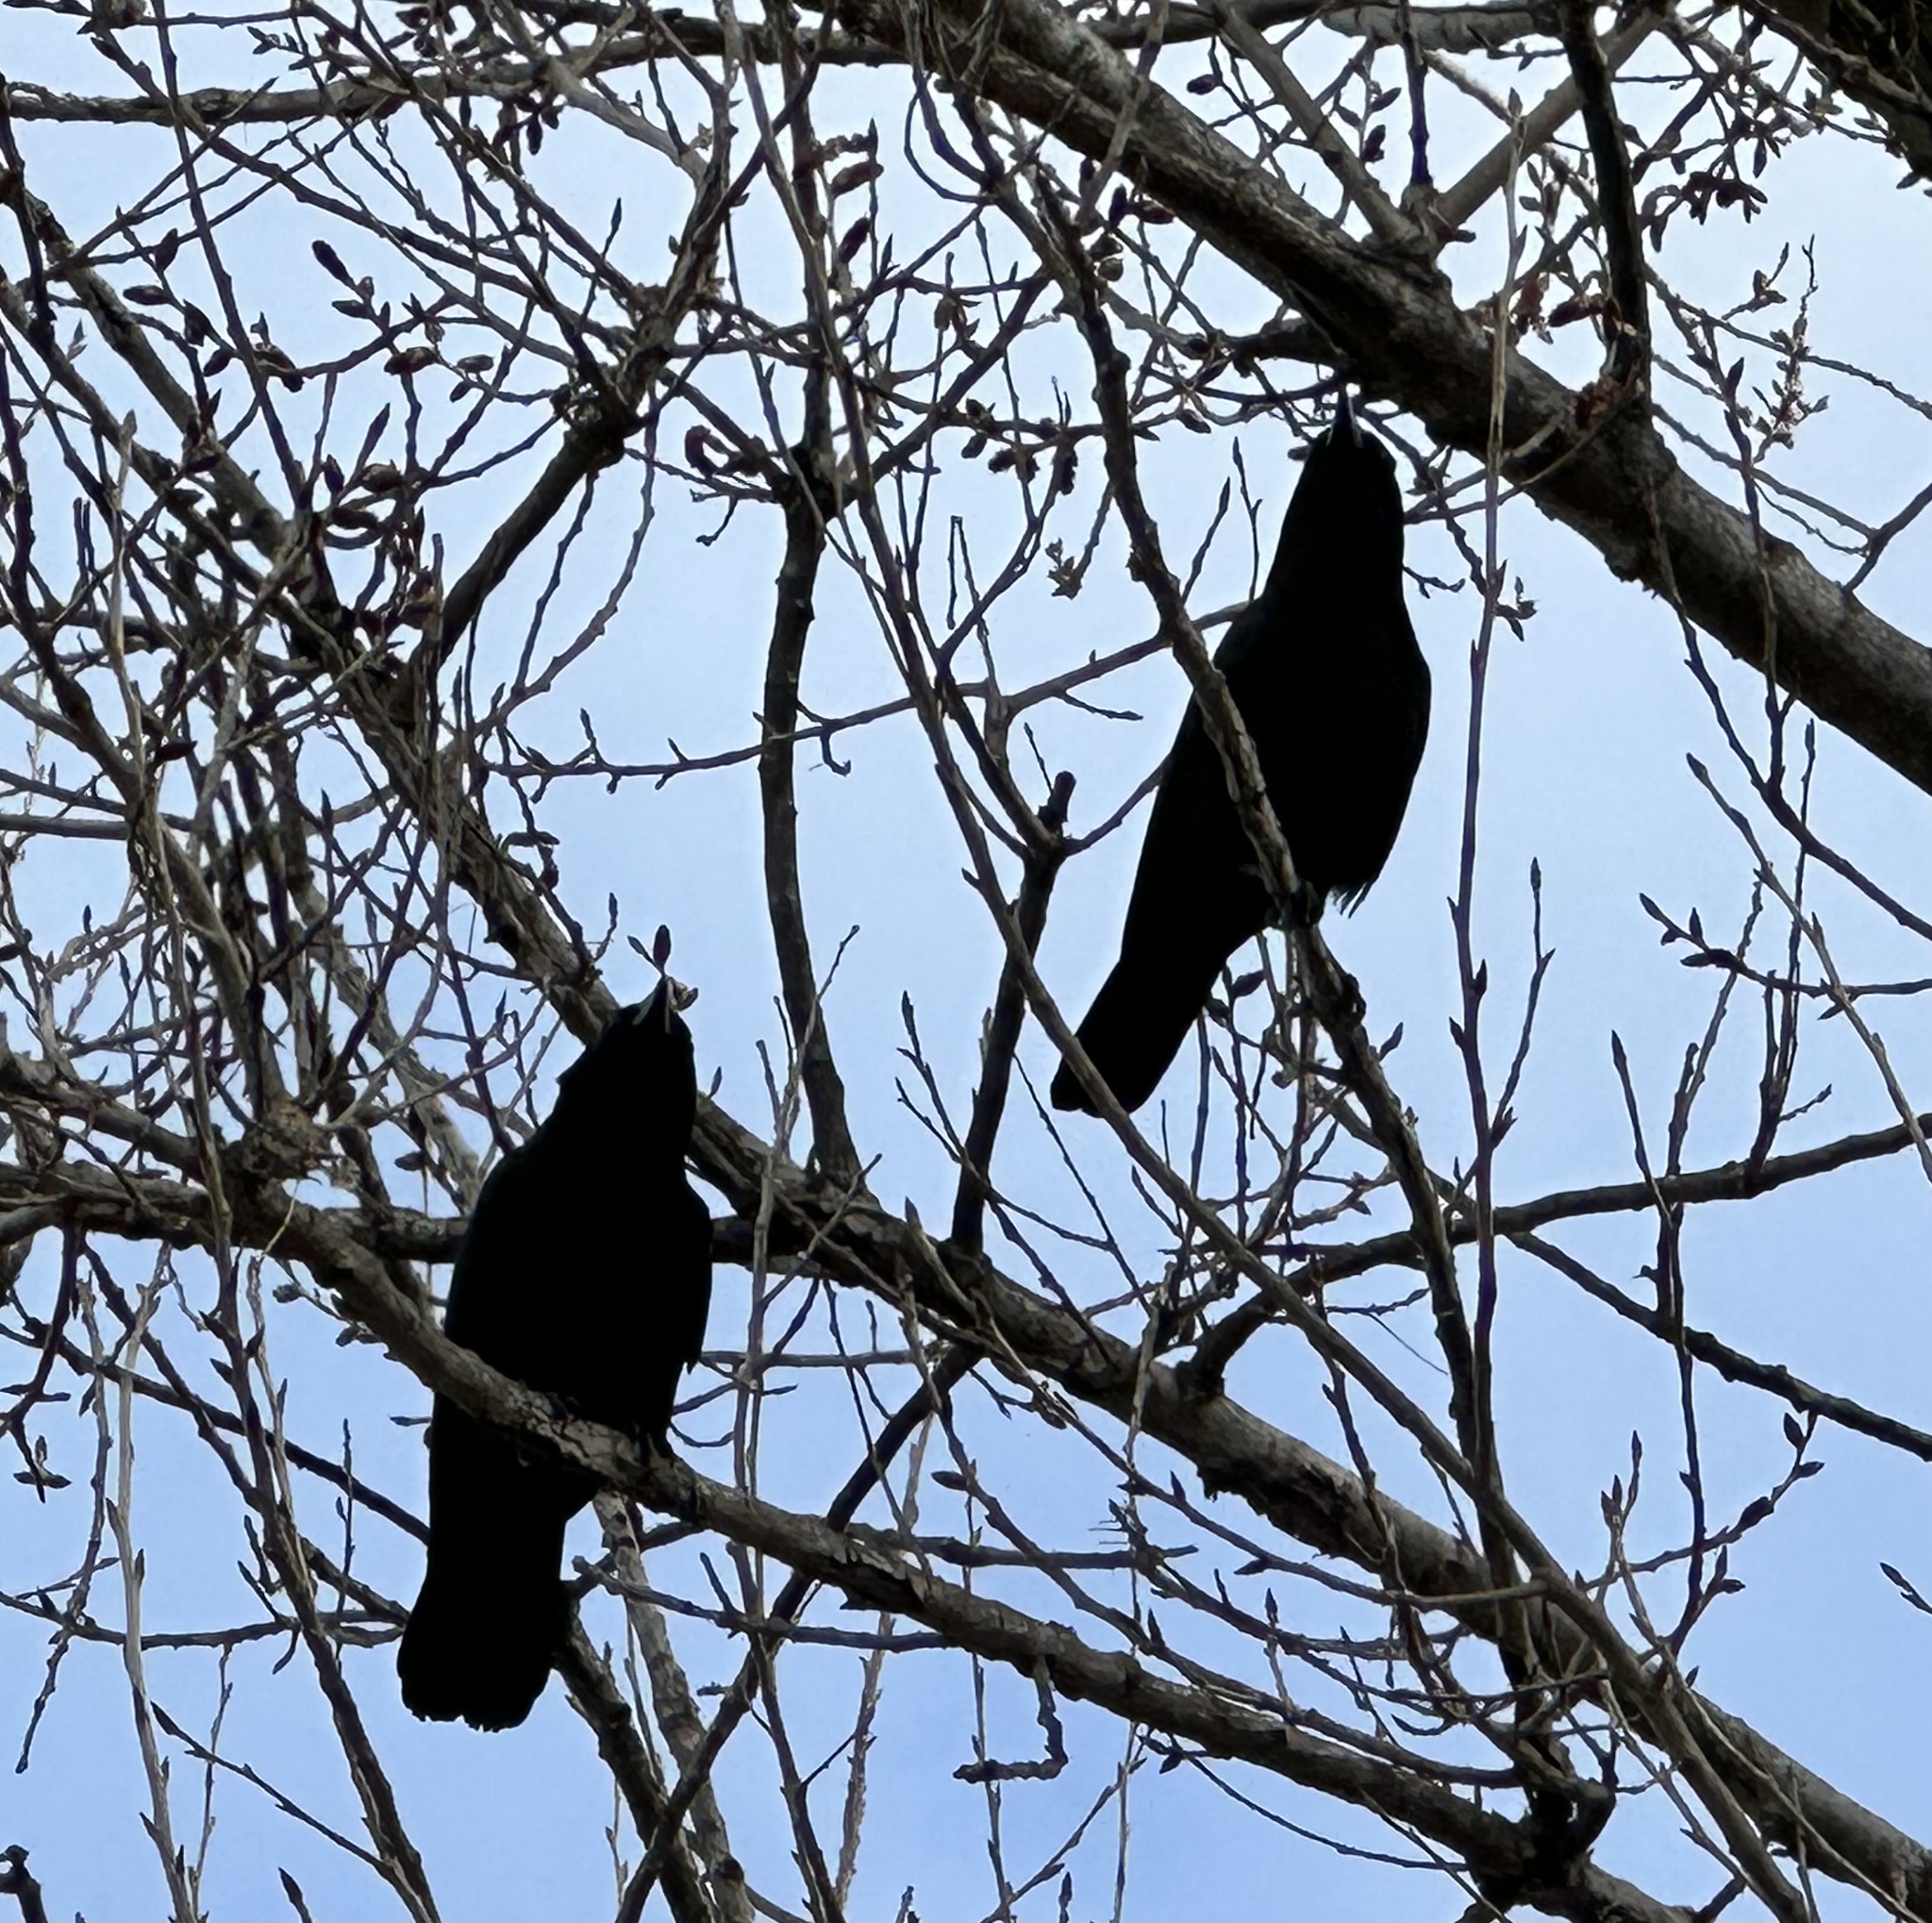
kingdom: Animalia
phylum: Chordata
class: Aves
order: Passeriformes
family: Corvidae
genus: Corvus
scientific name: Corvus brachyrhynchos
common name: American crow
